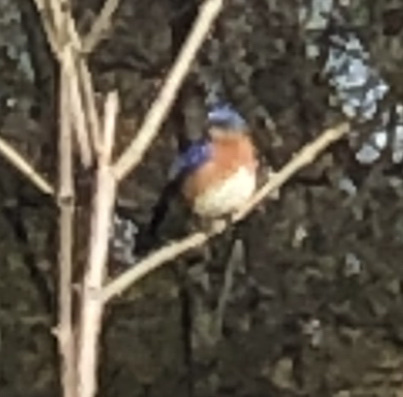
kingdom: Animalia
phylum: Chordata
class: Aves
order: Passeriformes
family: Turdidae
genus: Sialia
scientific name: Sialia sialis
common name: Eastern bluebird
